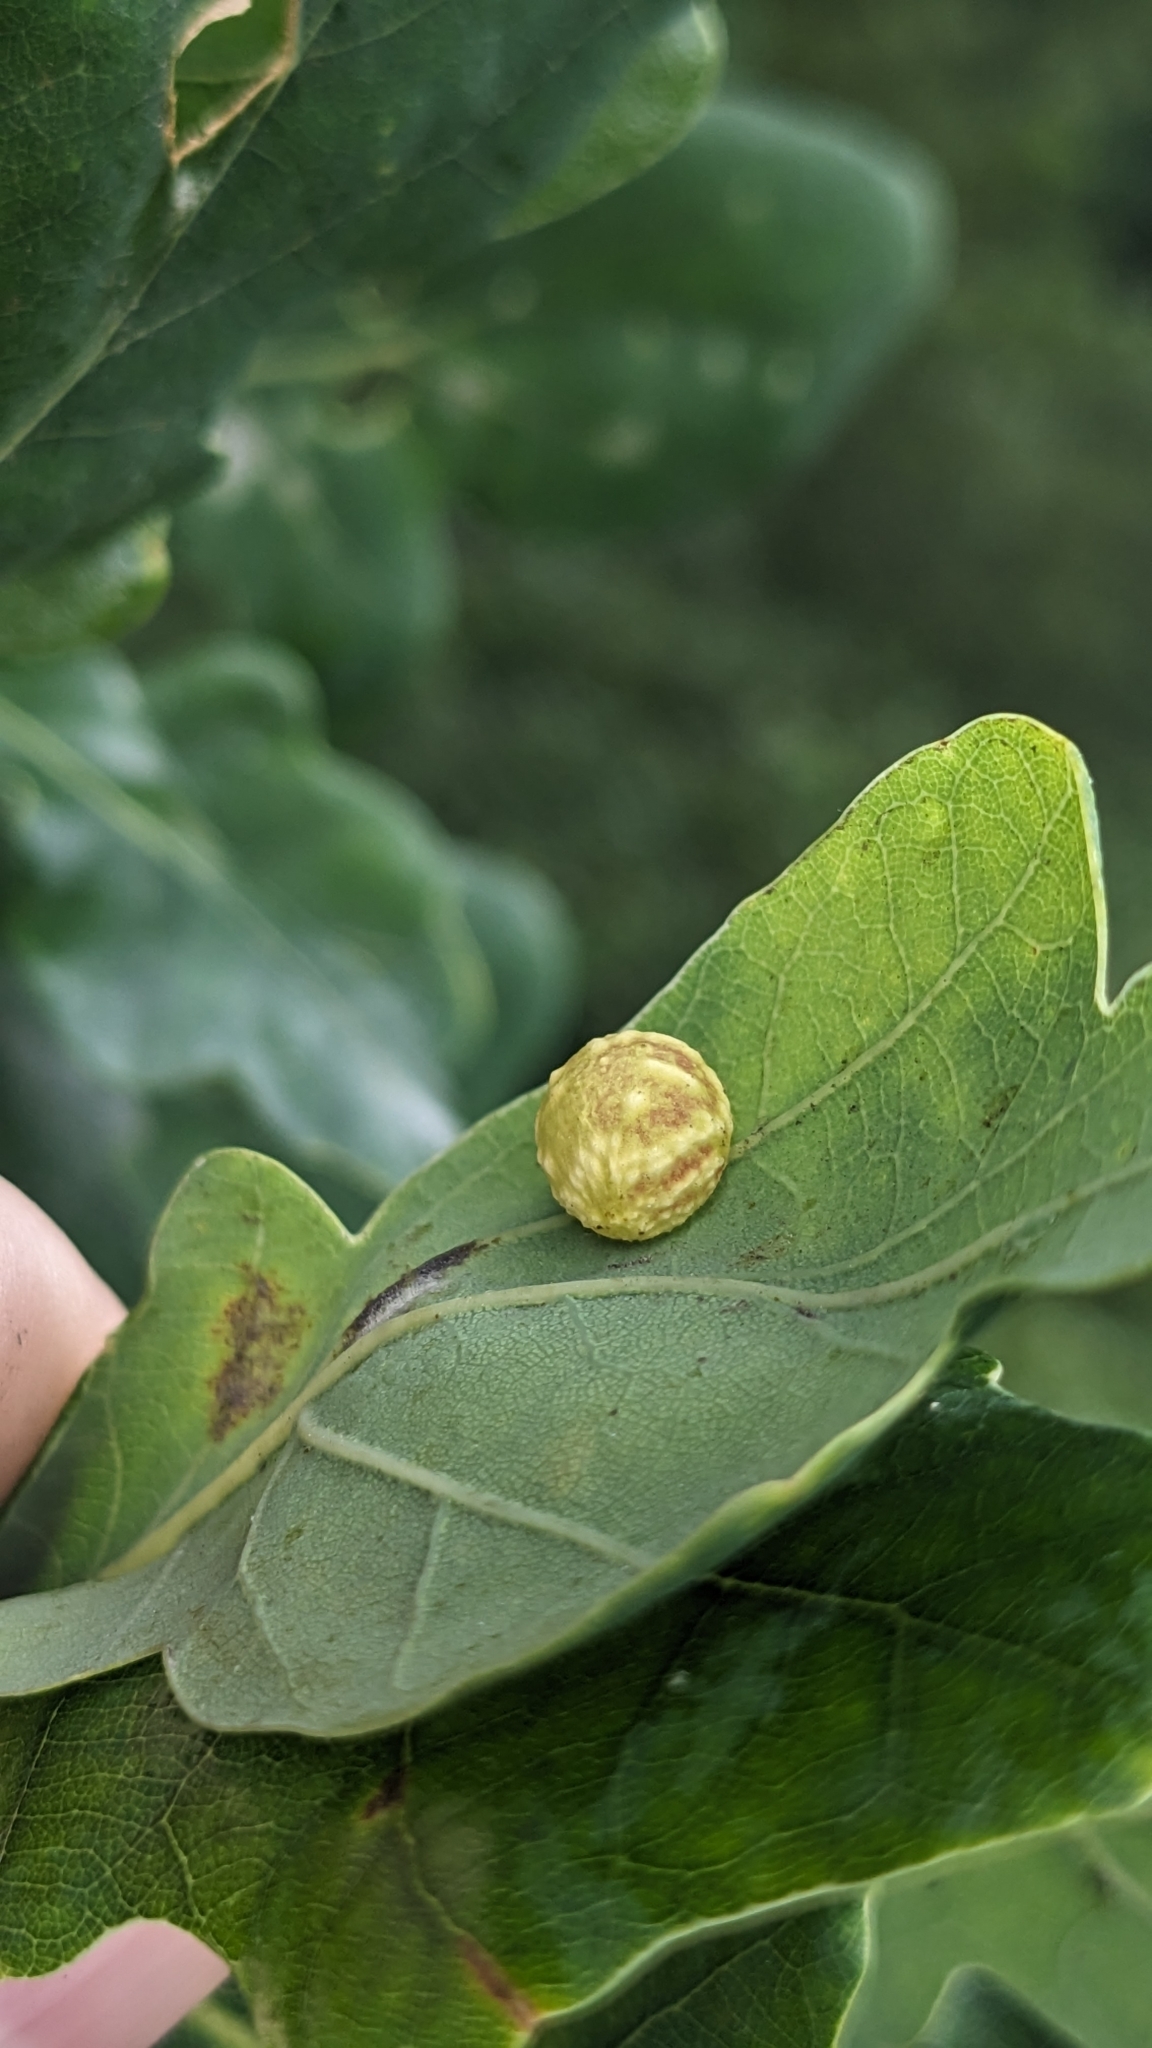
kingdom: Animalia
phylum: Arthropoda
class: Insecta
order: Hymenoptera
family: Cynipidae
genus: Cynips
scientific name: Cynips longiventris
